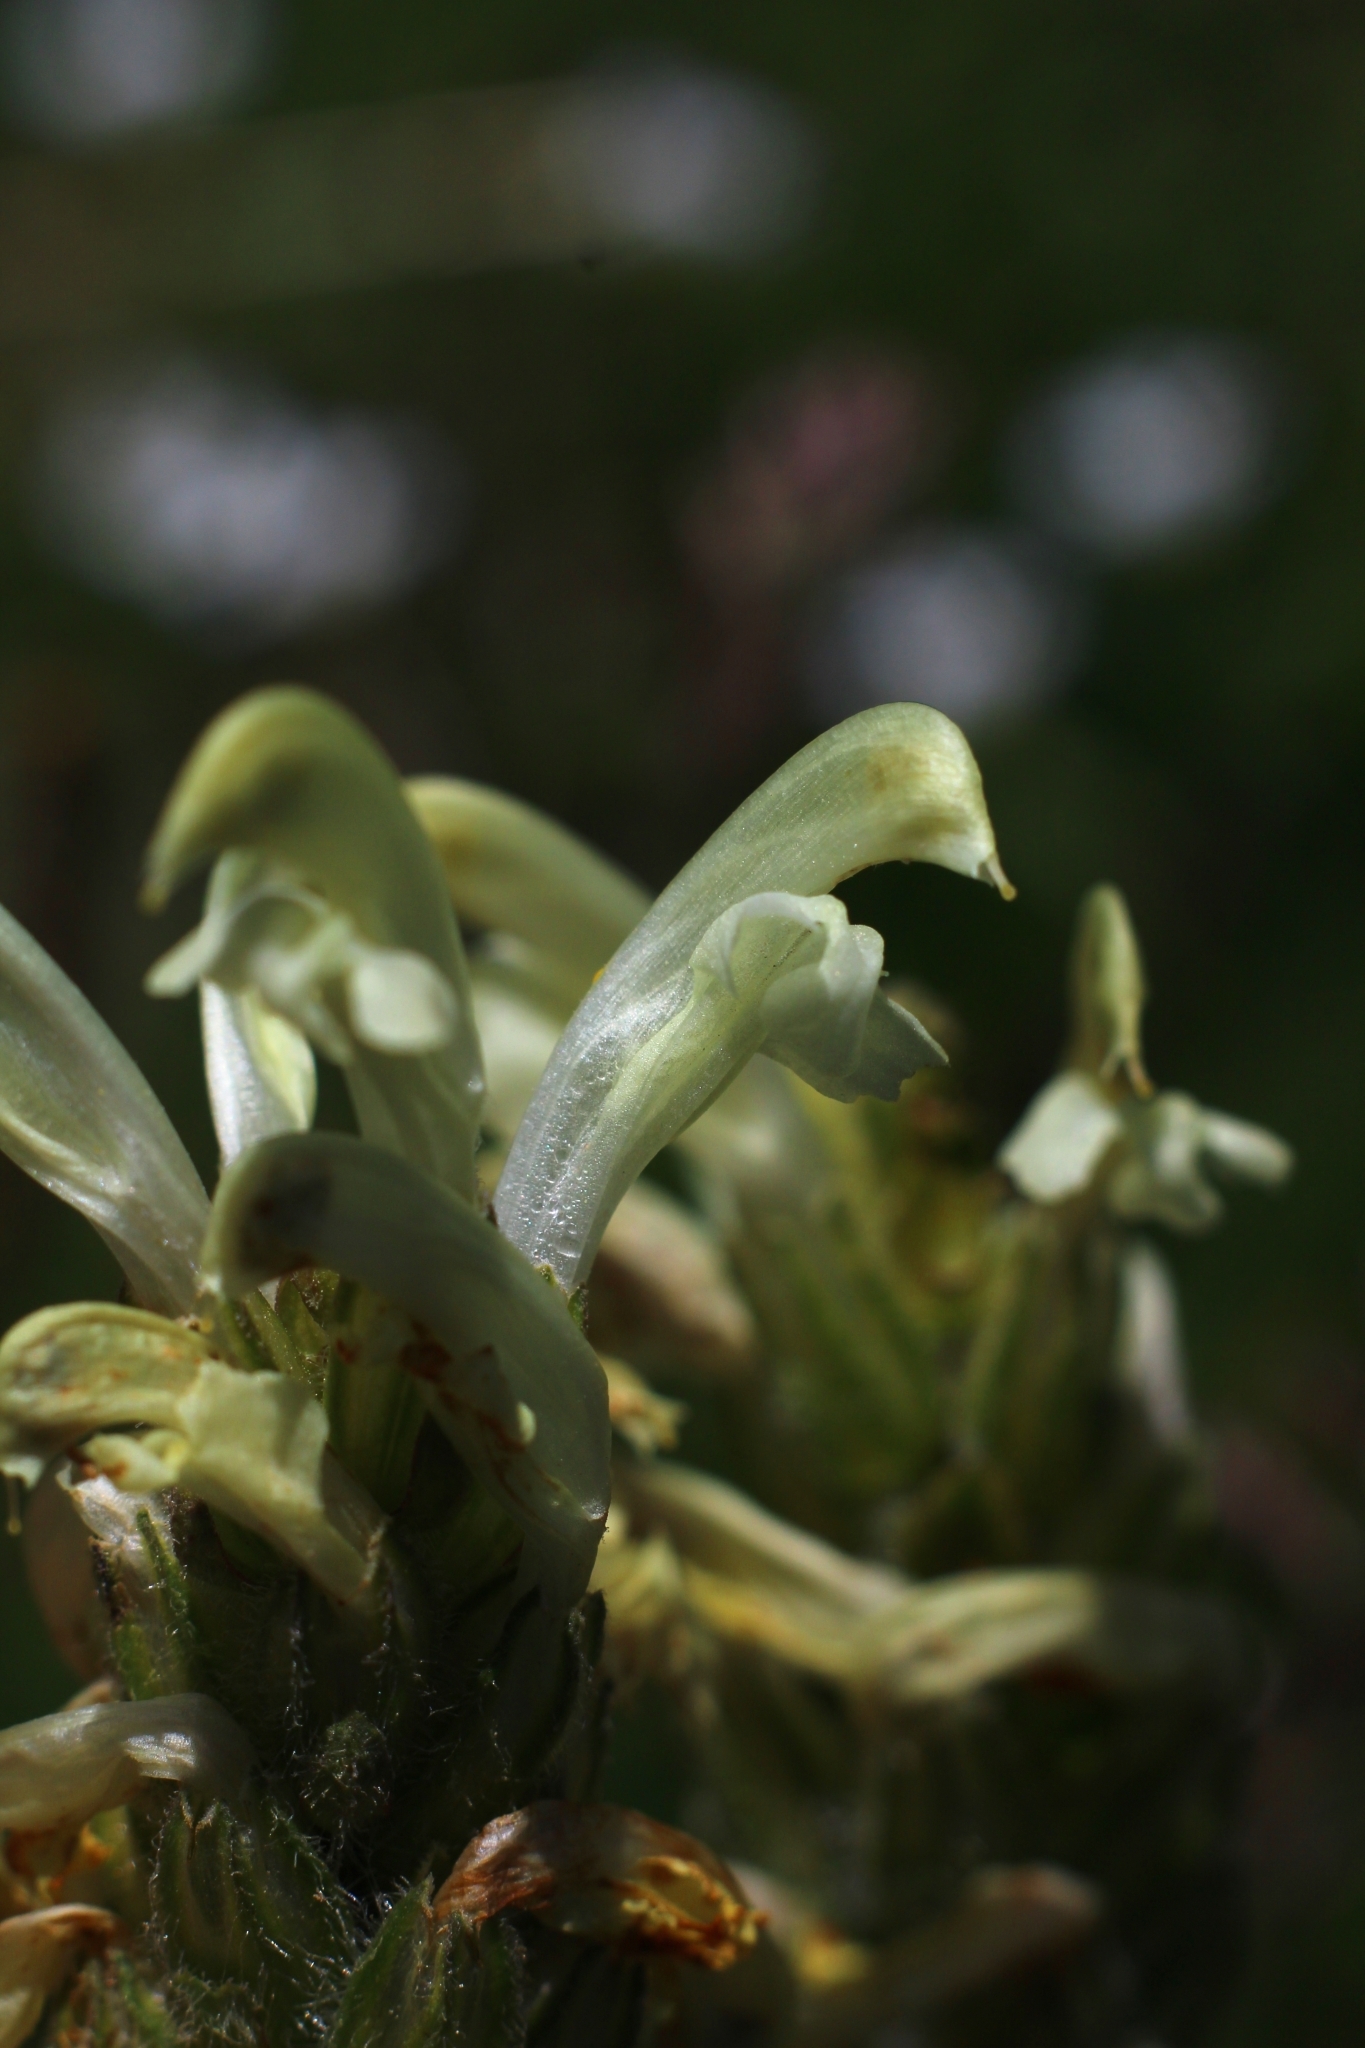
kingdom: Plantae
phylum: Tracheophyta
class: Magnoliopsida
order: Lamiales
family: Orobanchaceae
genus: Pedicularis
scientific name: Pedicularis comosa
